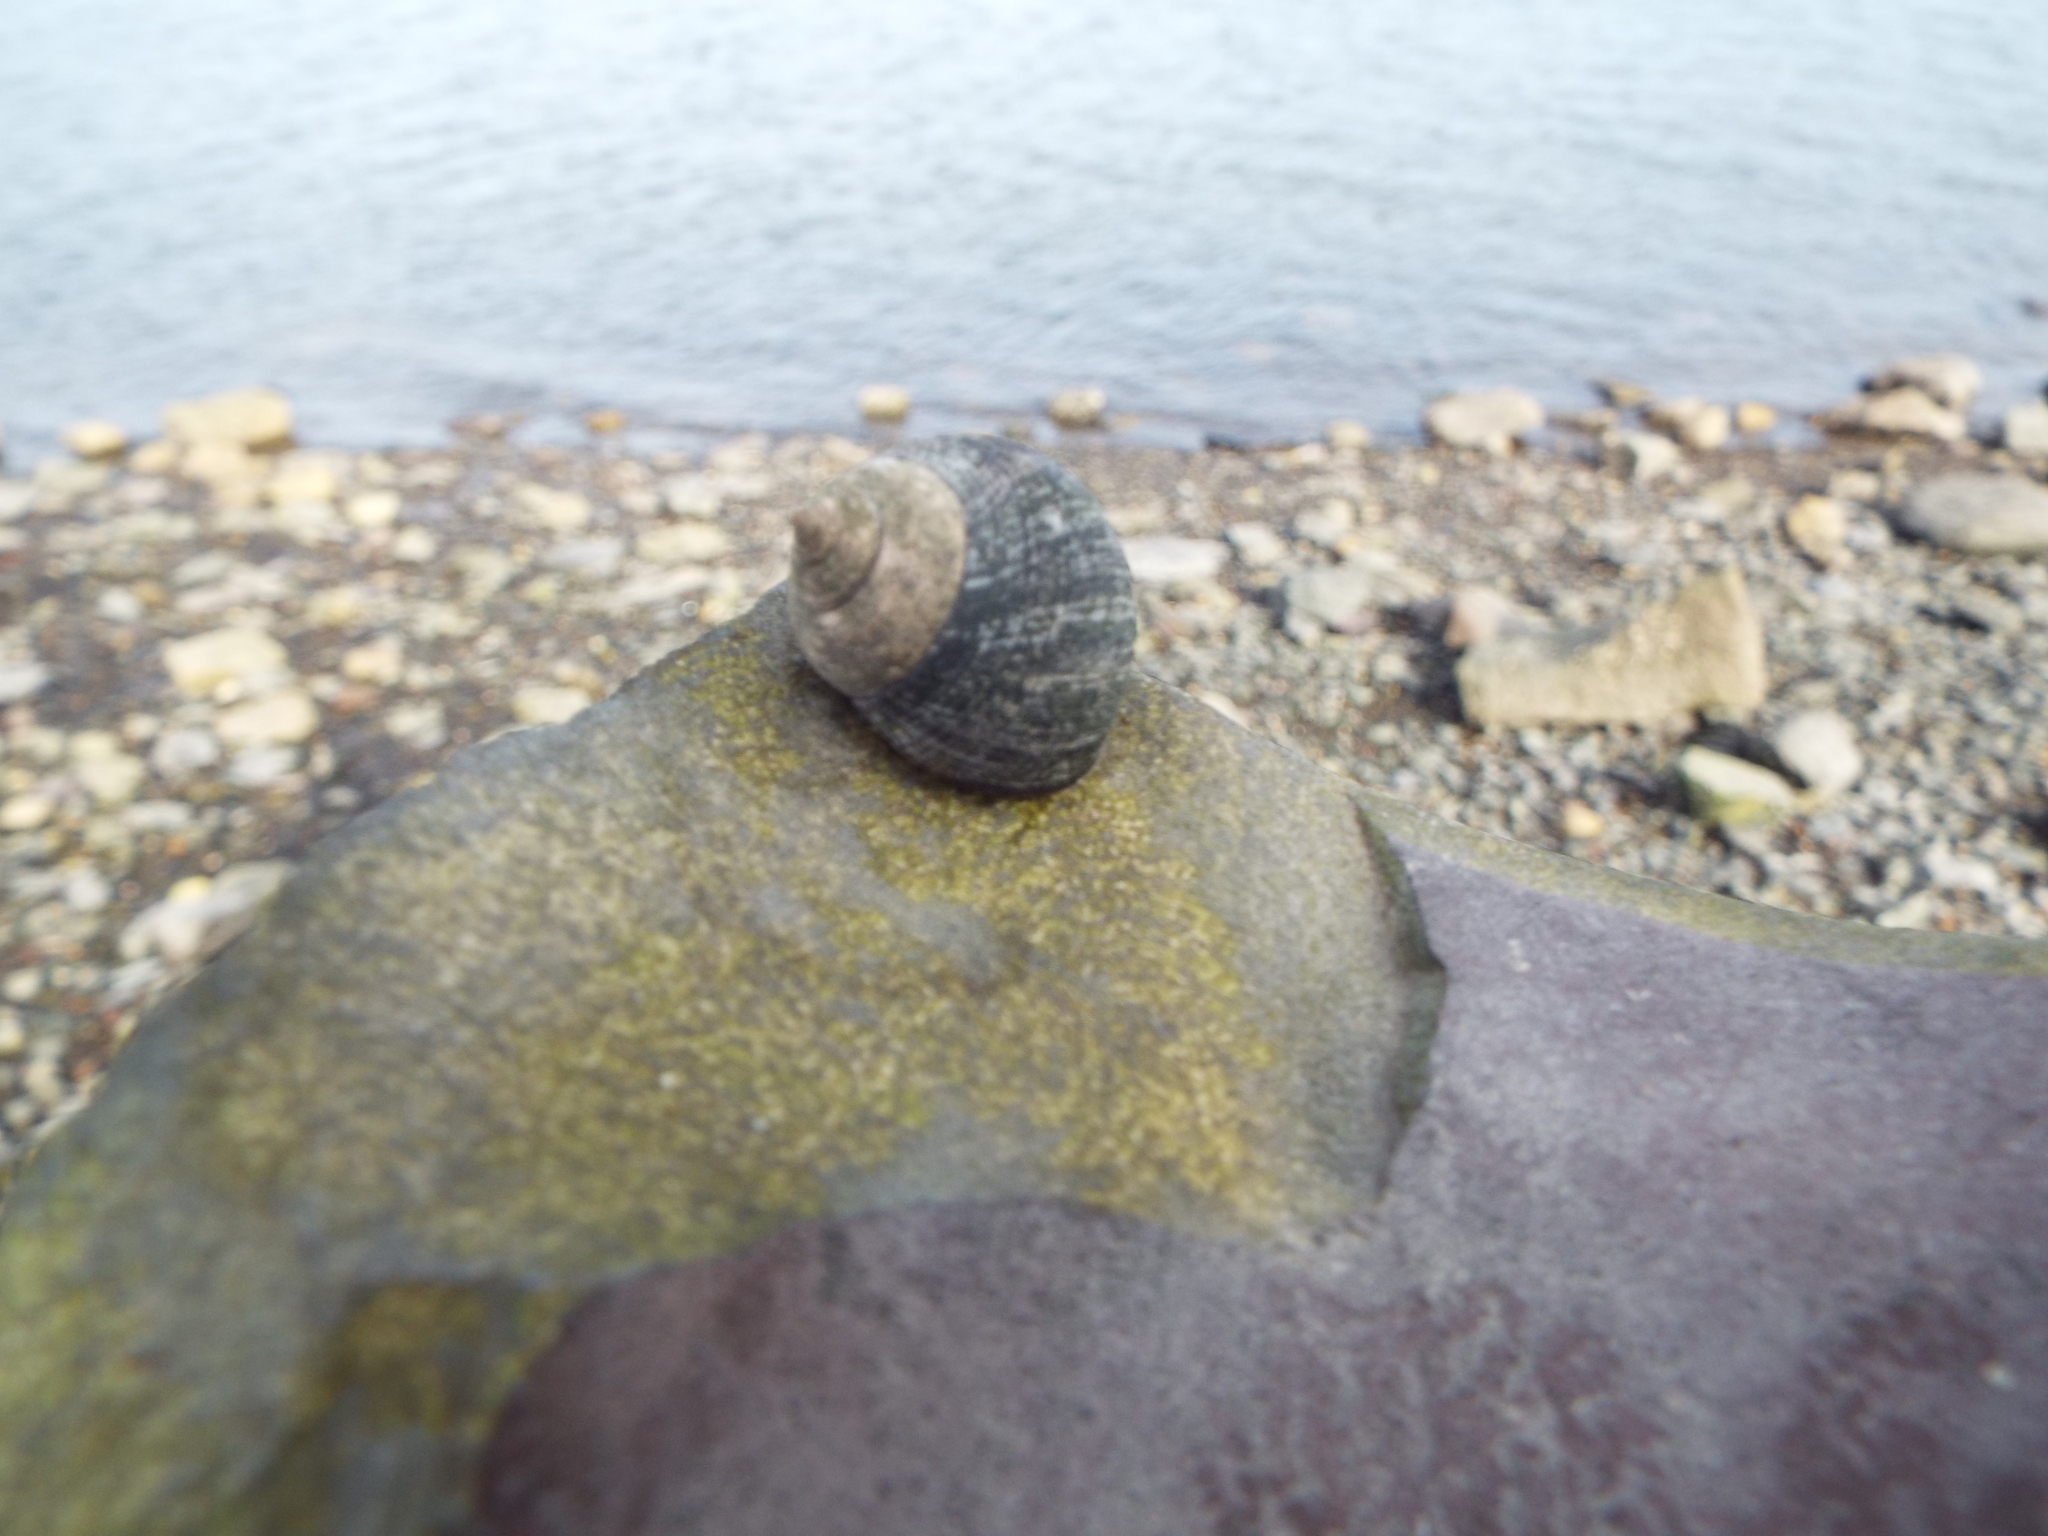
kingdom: Animalia
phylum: Mollusca
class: Gastropoda
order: Littorinimorpha
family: Littorinidae
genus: Littorina
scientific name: Littorina littorea
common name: Common periwinkle
